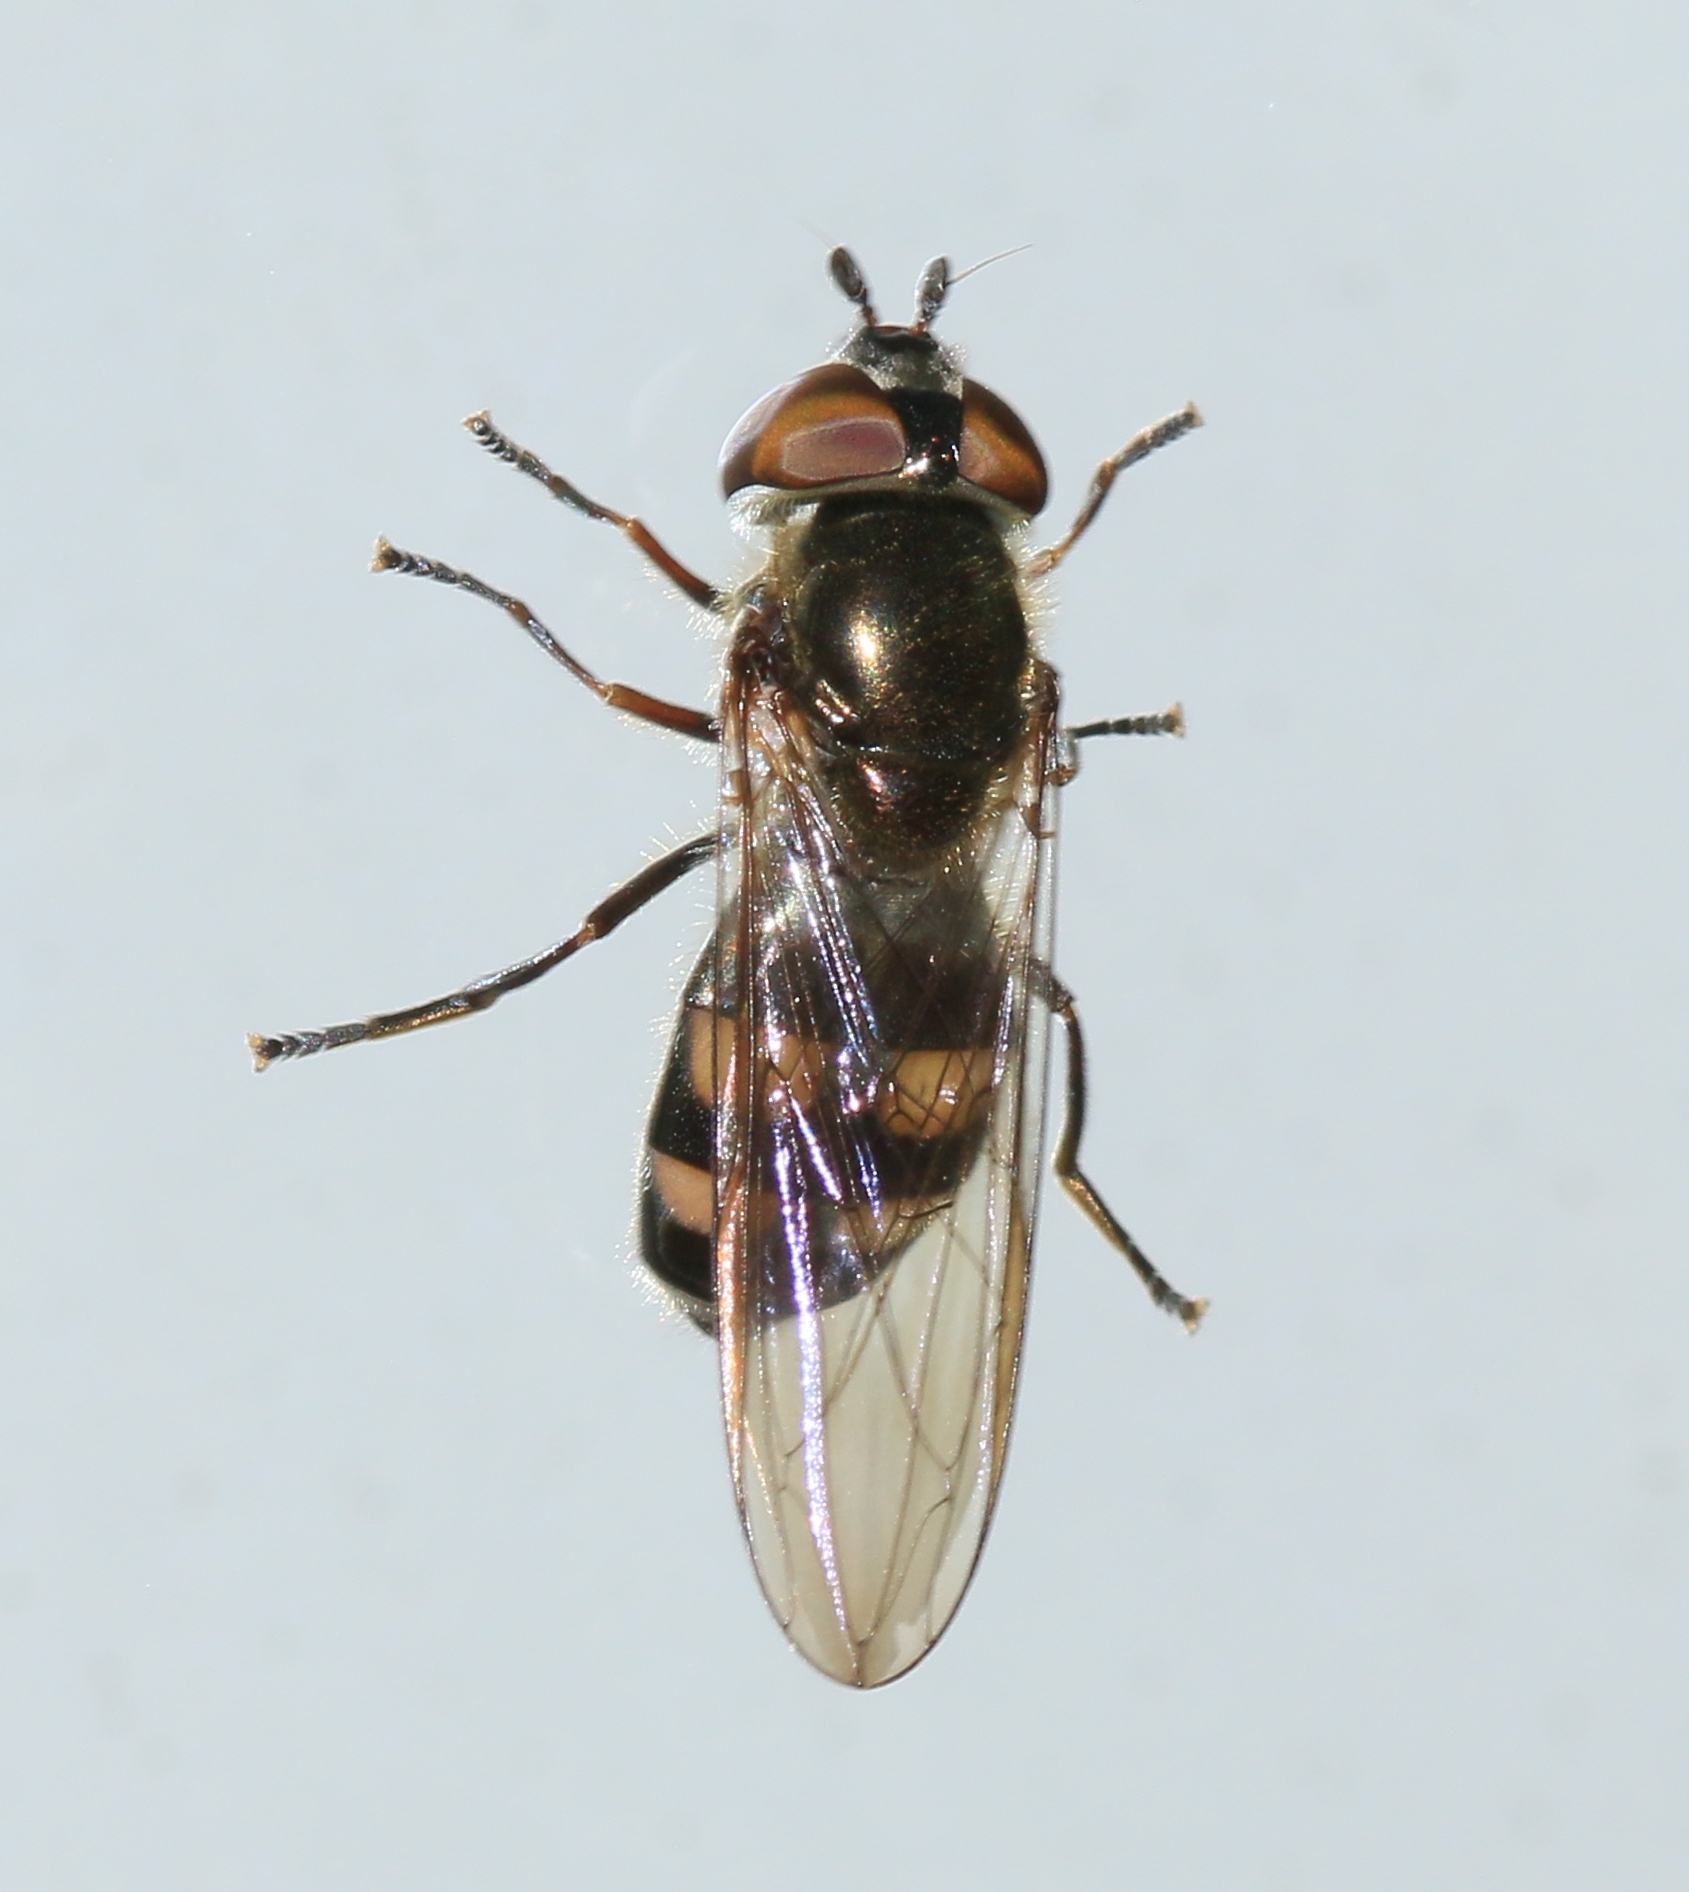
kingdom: Animalia
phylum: Arthropoda
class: Insecta
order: Diptera
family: Syrphidae
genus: Xanthandrus
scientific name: Xanthandrus comtus
